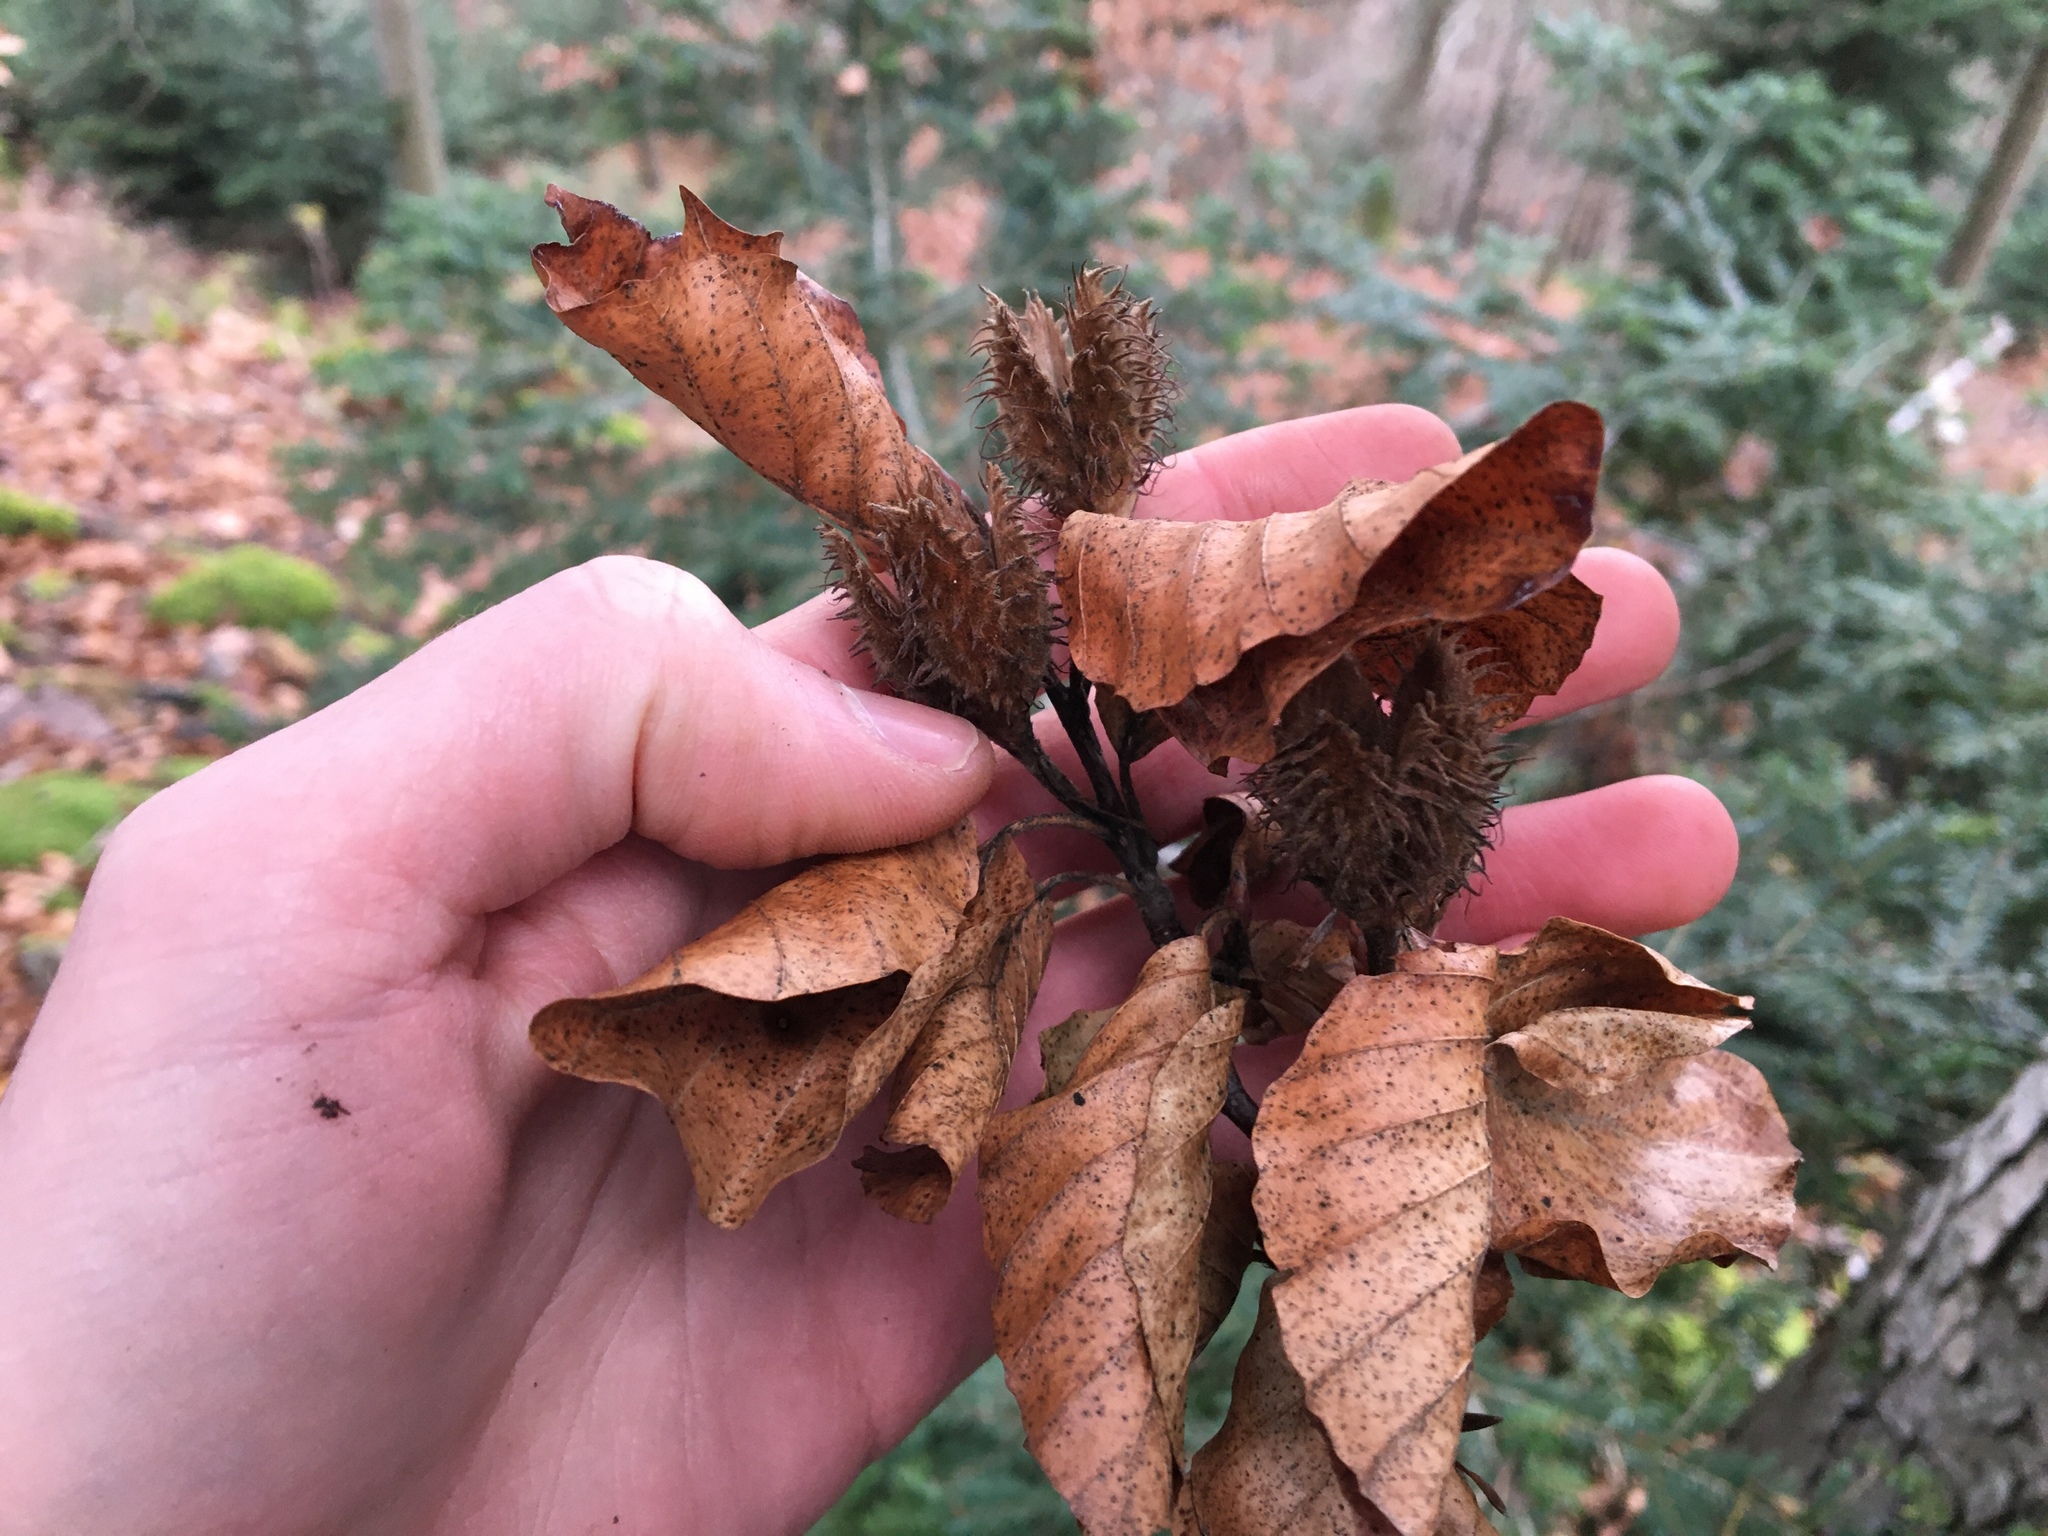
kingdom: Plantae
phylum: Tracheophyta
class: Magnoliopsida
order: Fagales
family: Fagaceae
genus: Fagus
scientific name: Fagus sylvatica
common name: Beech
